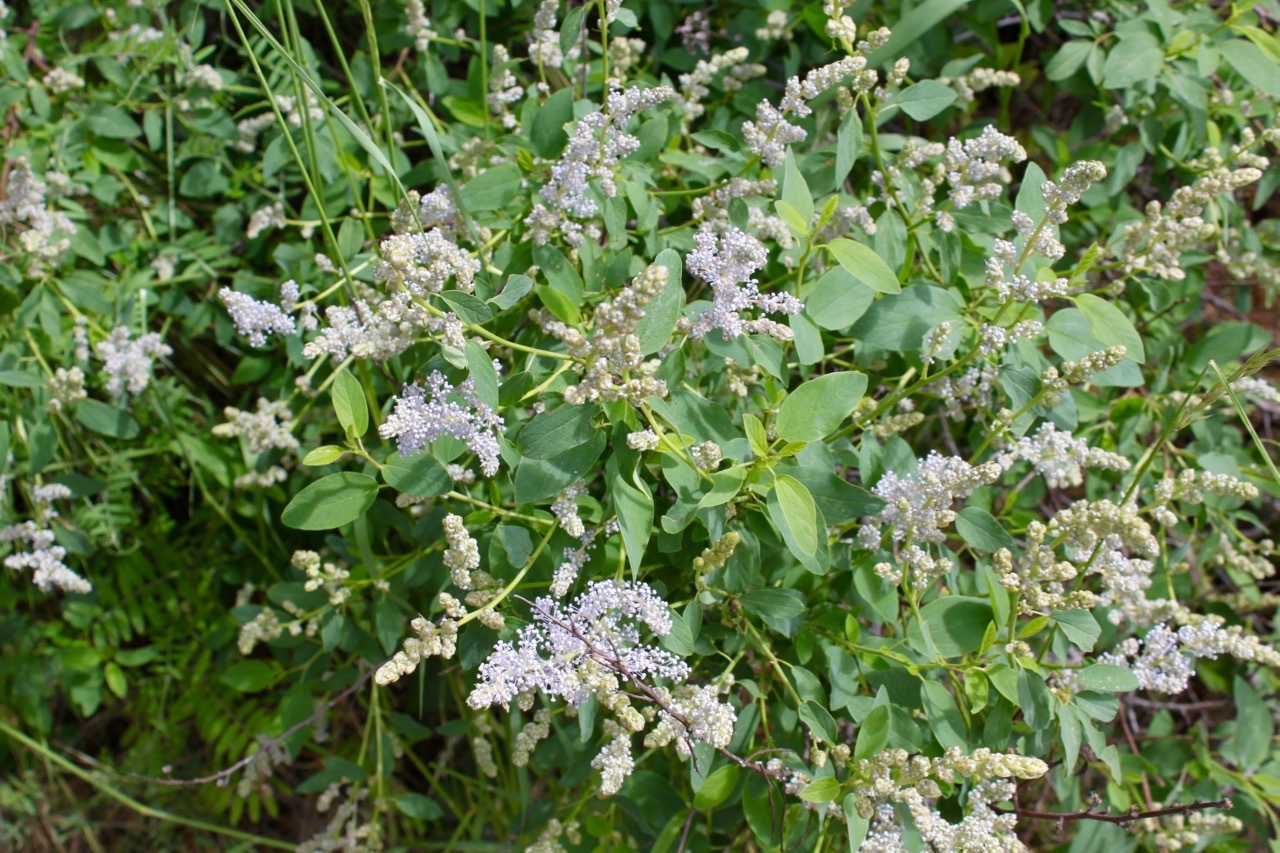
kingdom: Plantae
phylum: Tracheophyta
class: Magnoliopsida
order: Rosales
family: Rhamnaceae
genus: Ceanothus
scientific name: Ceanothus integerrimus
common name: Deerbrush ceanothus
